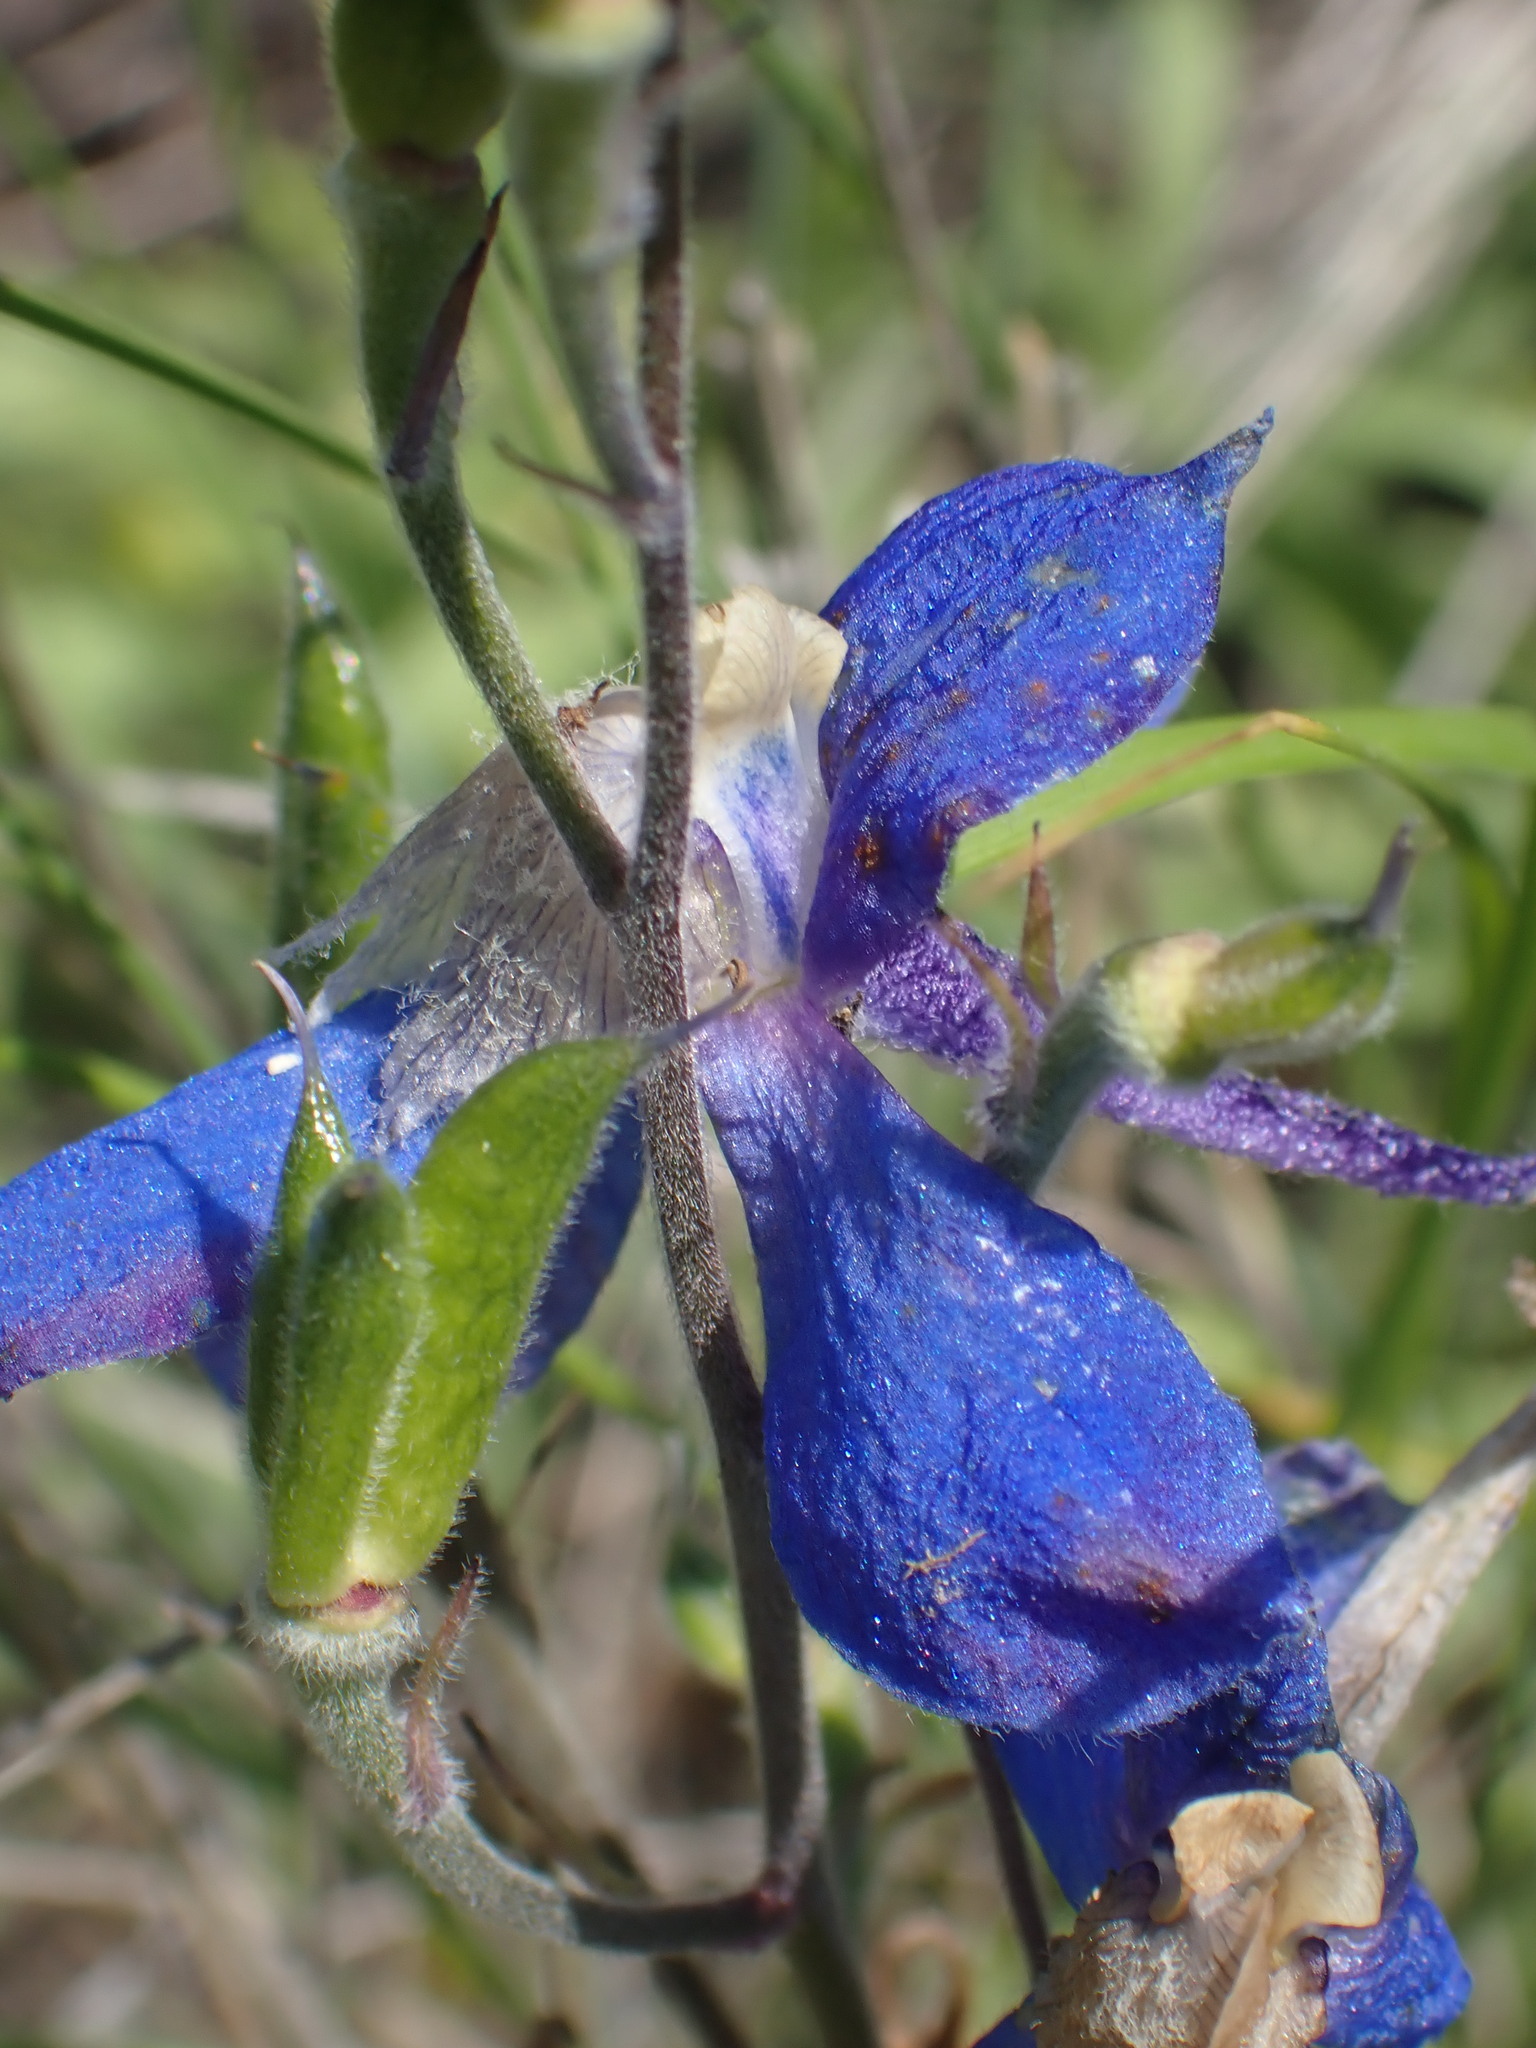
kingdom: Plantae
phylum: Tracheophyta
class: Magnoliopsida
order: Ranunculales
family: Ranunculaceae
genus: Delphinium
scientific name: Delphinium sutherlandii
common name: Sutherland's larkspur
